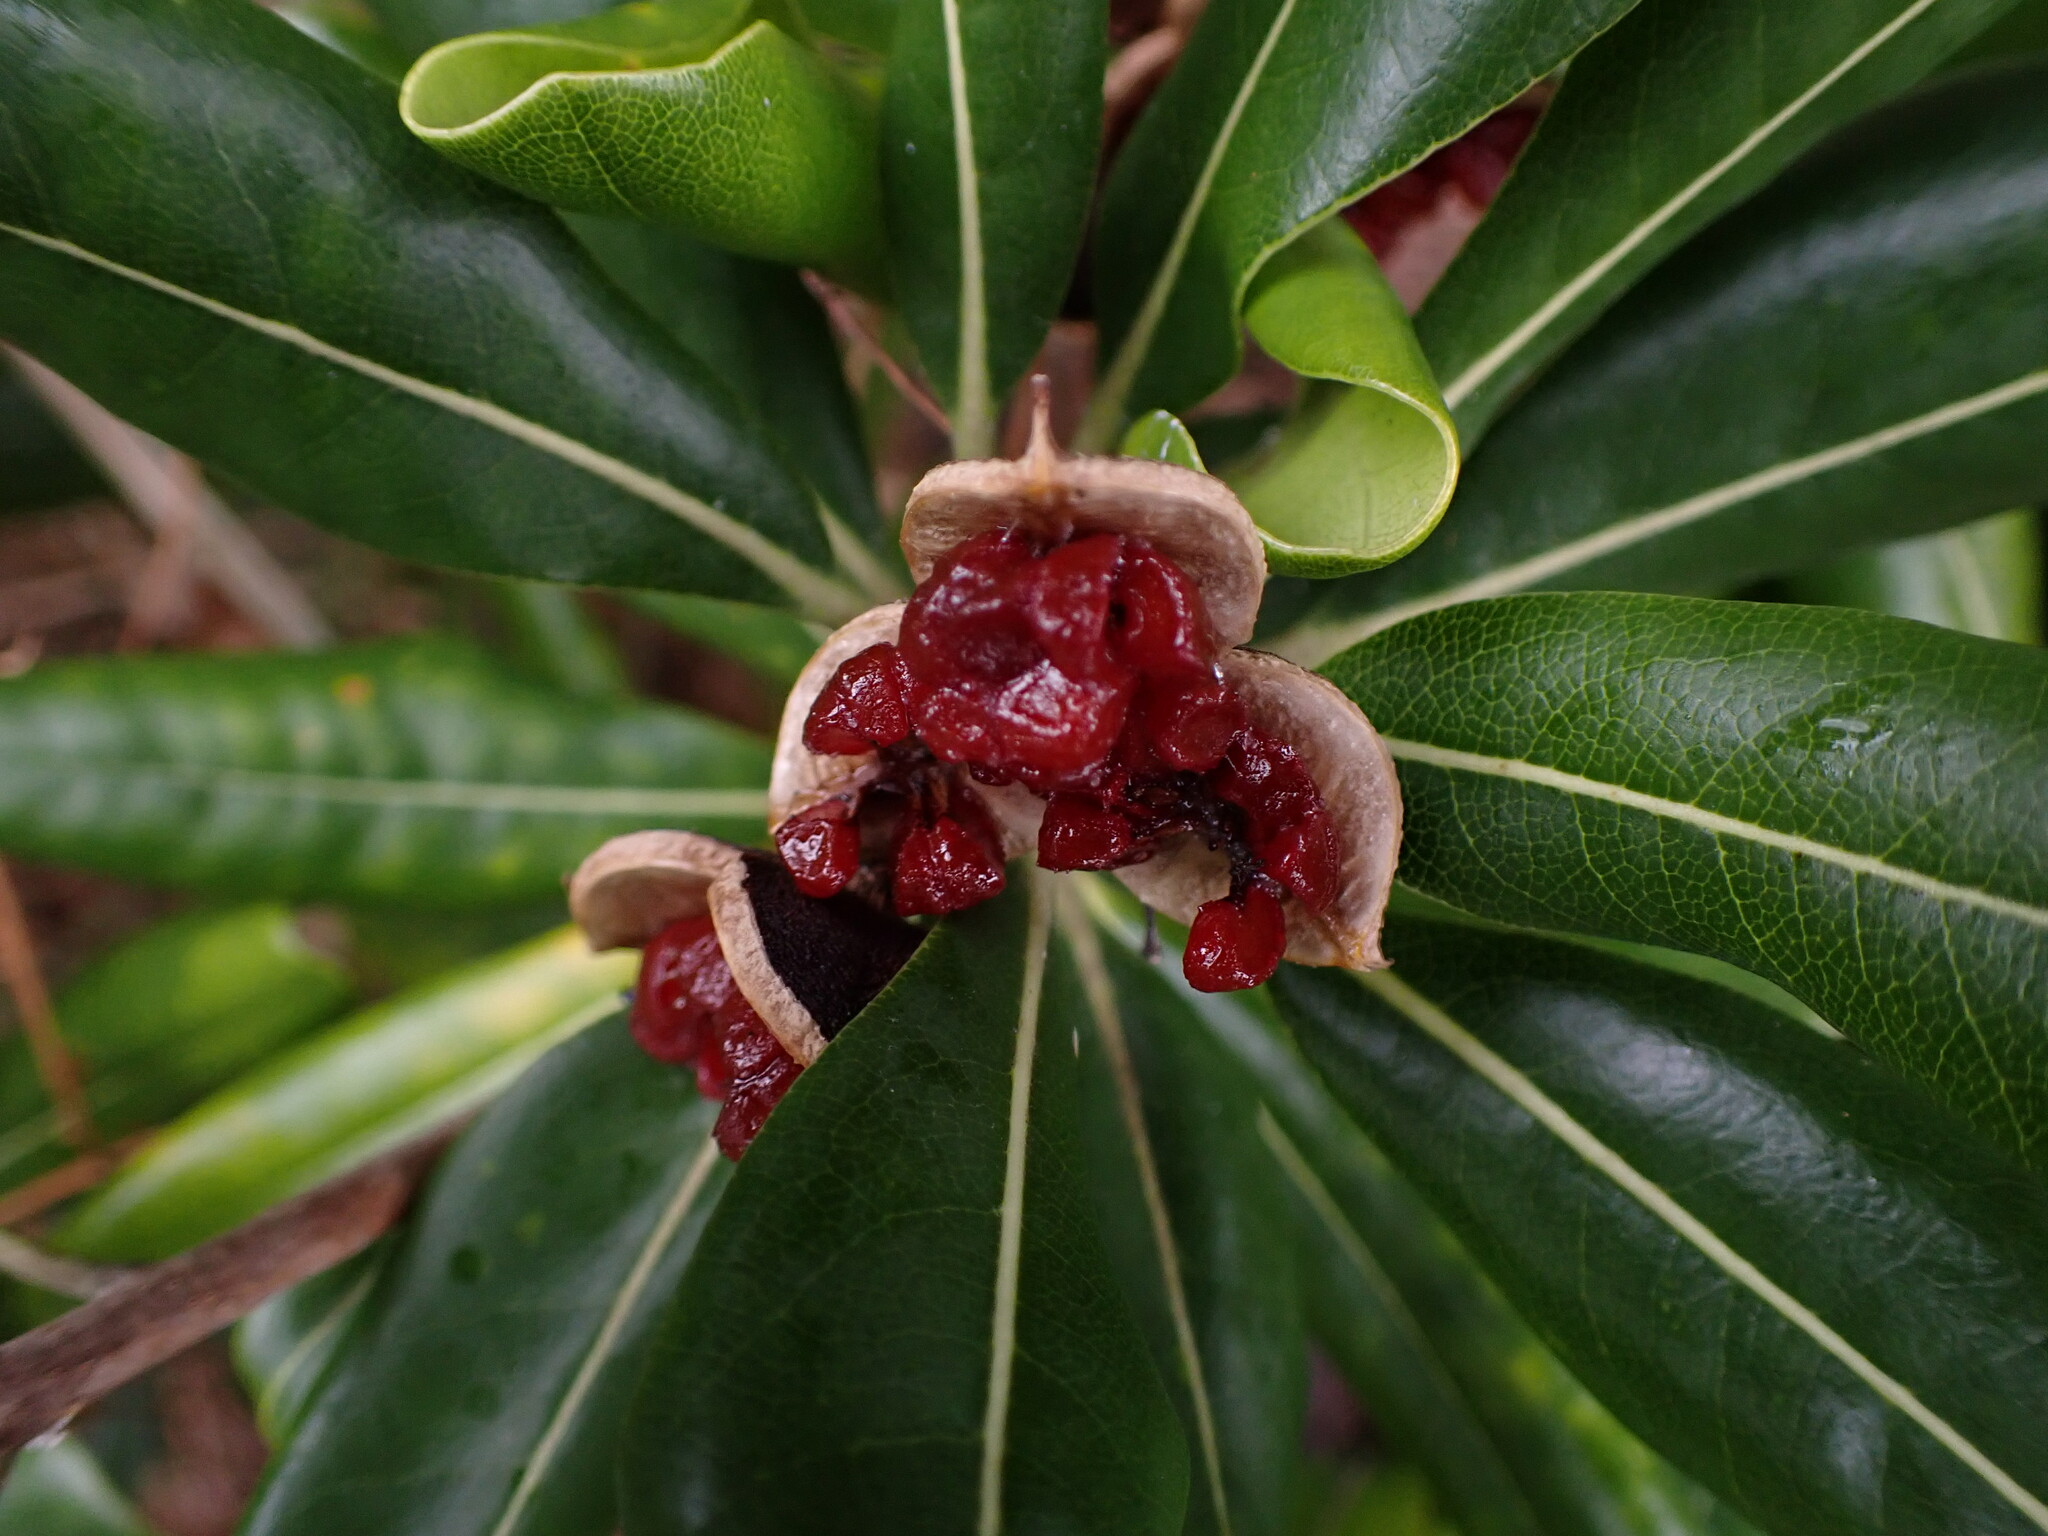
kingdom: Plantae
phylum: Tracheophyta
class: Magnoliopsida
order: Apiales
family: Pittosporaceae
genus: Pittosporum
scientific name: Pittosporum tobira
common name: Japanese cheesewood
